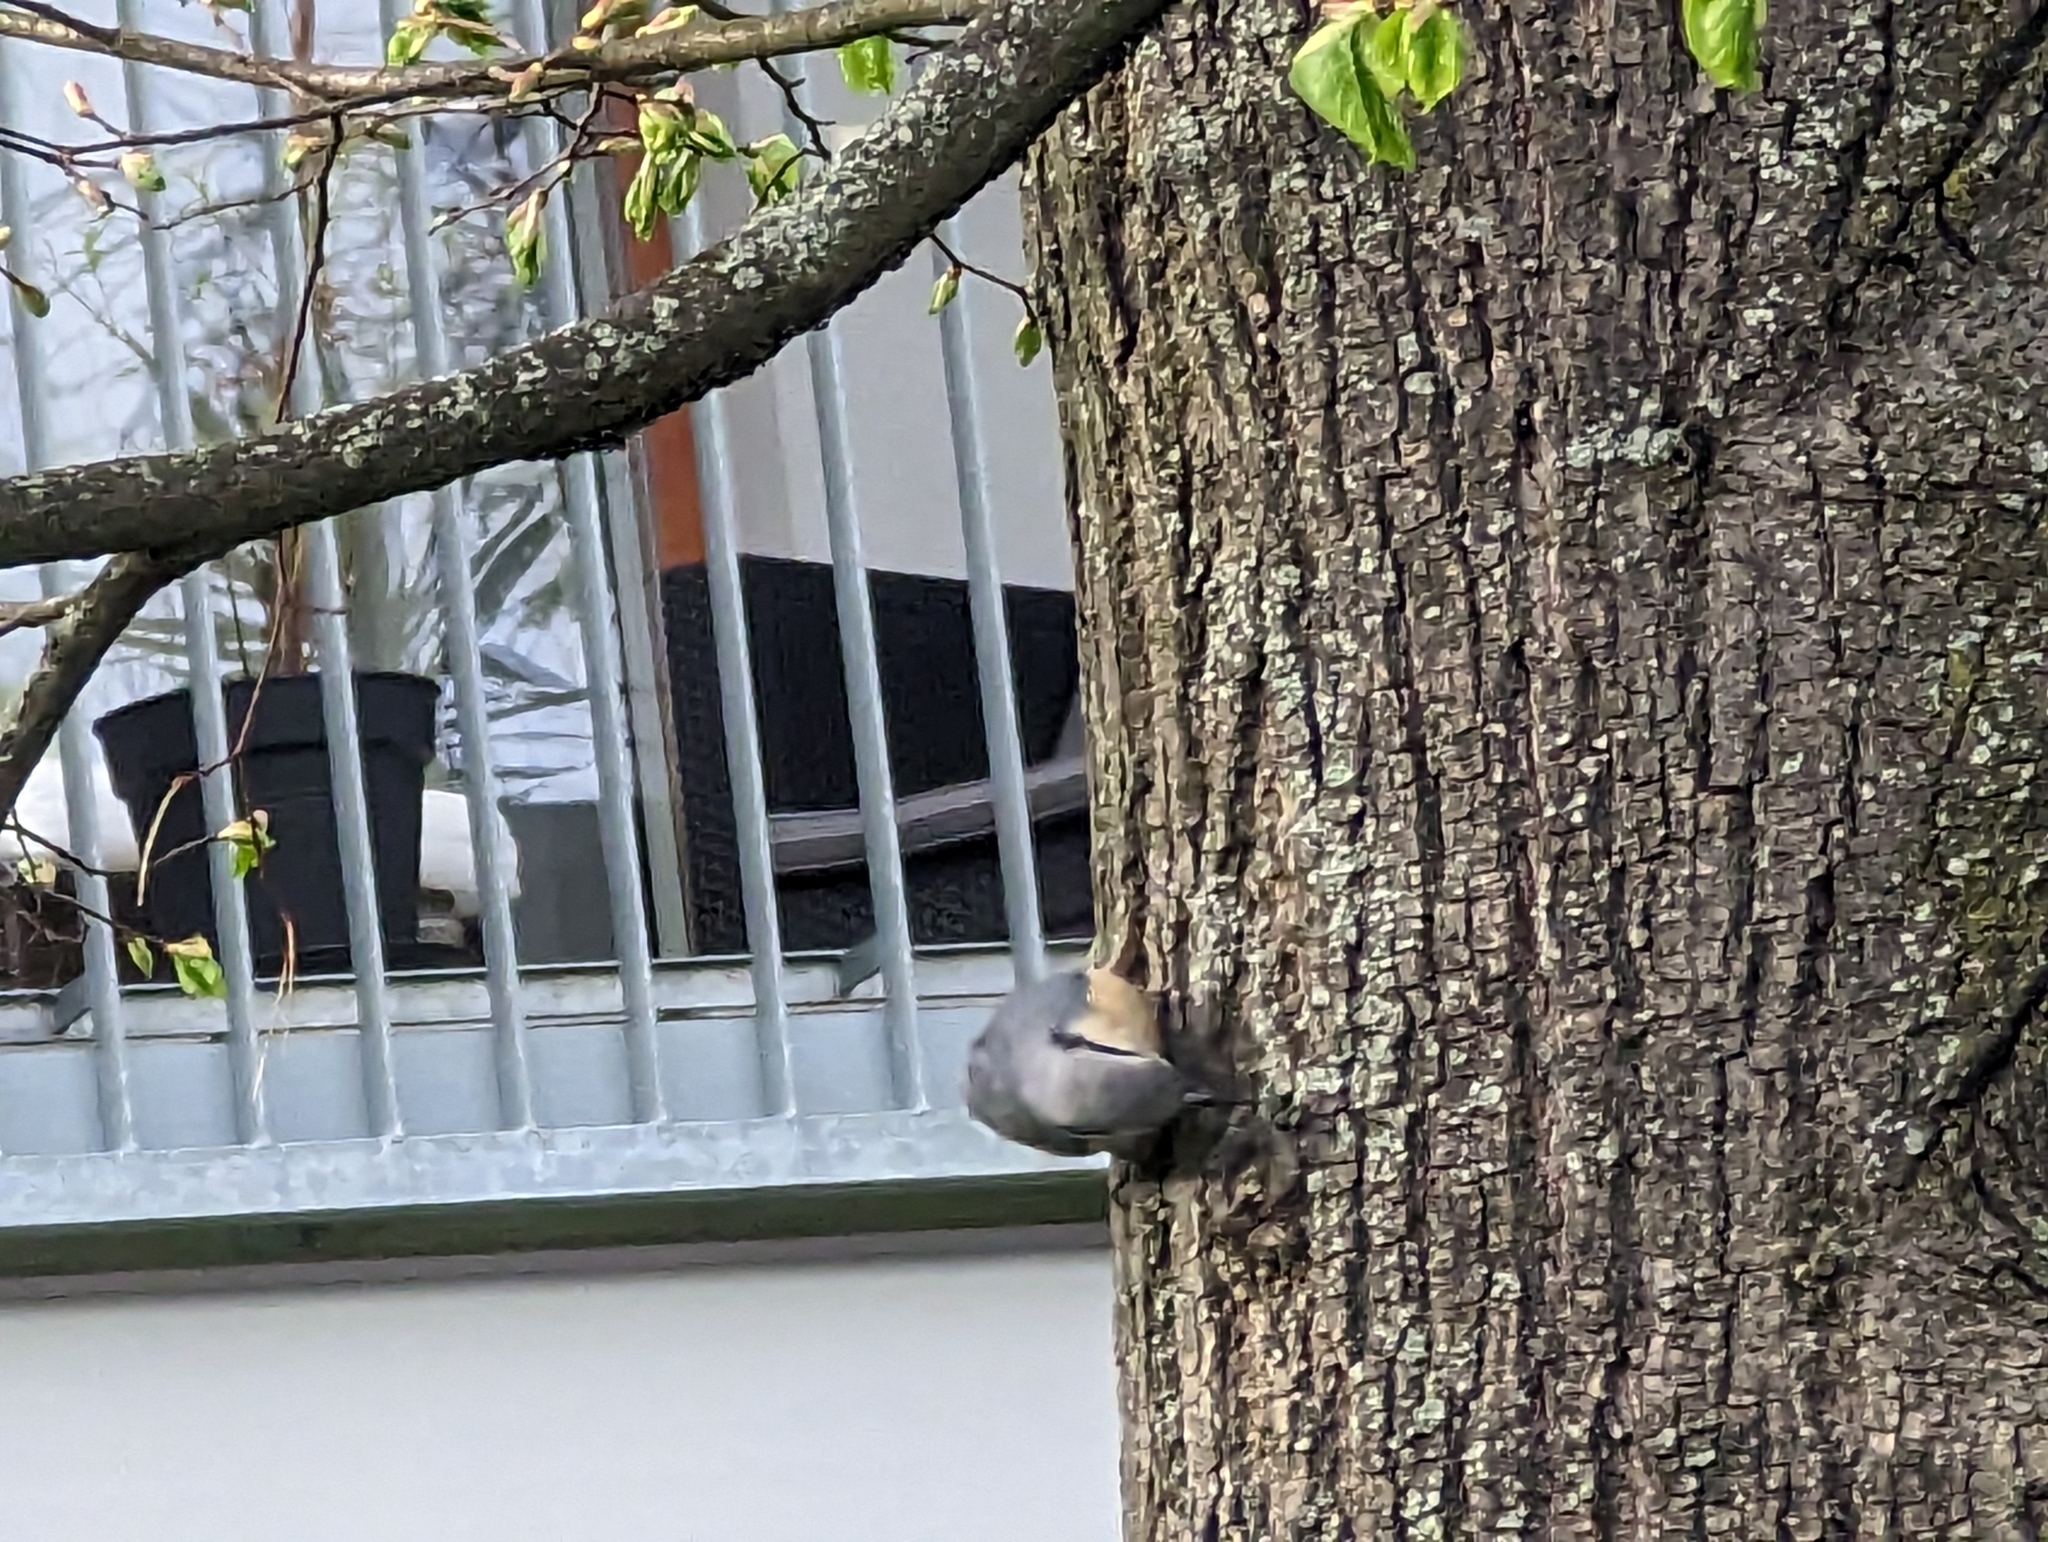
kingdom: Animalia
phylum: Chordata
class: Aves
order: Passeriformes
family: Sittidae
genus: Sitta
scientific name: Sitta europaea
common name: Eurasian nuthatch
